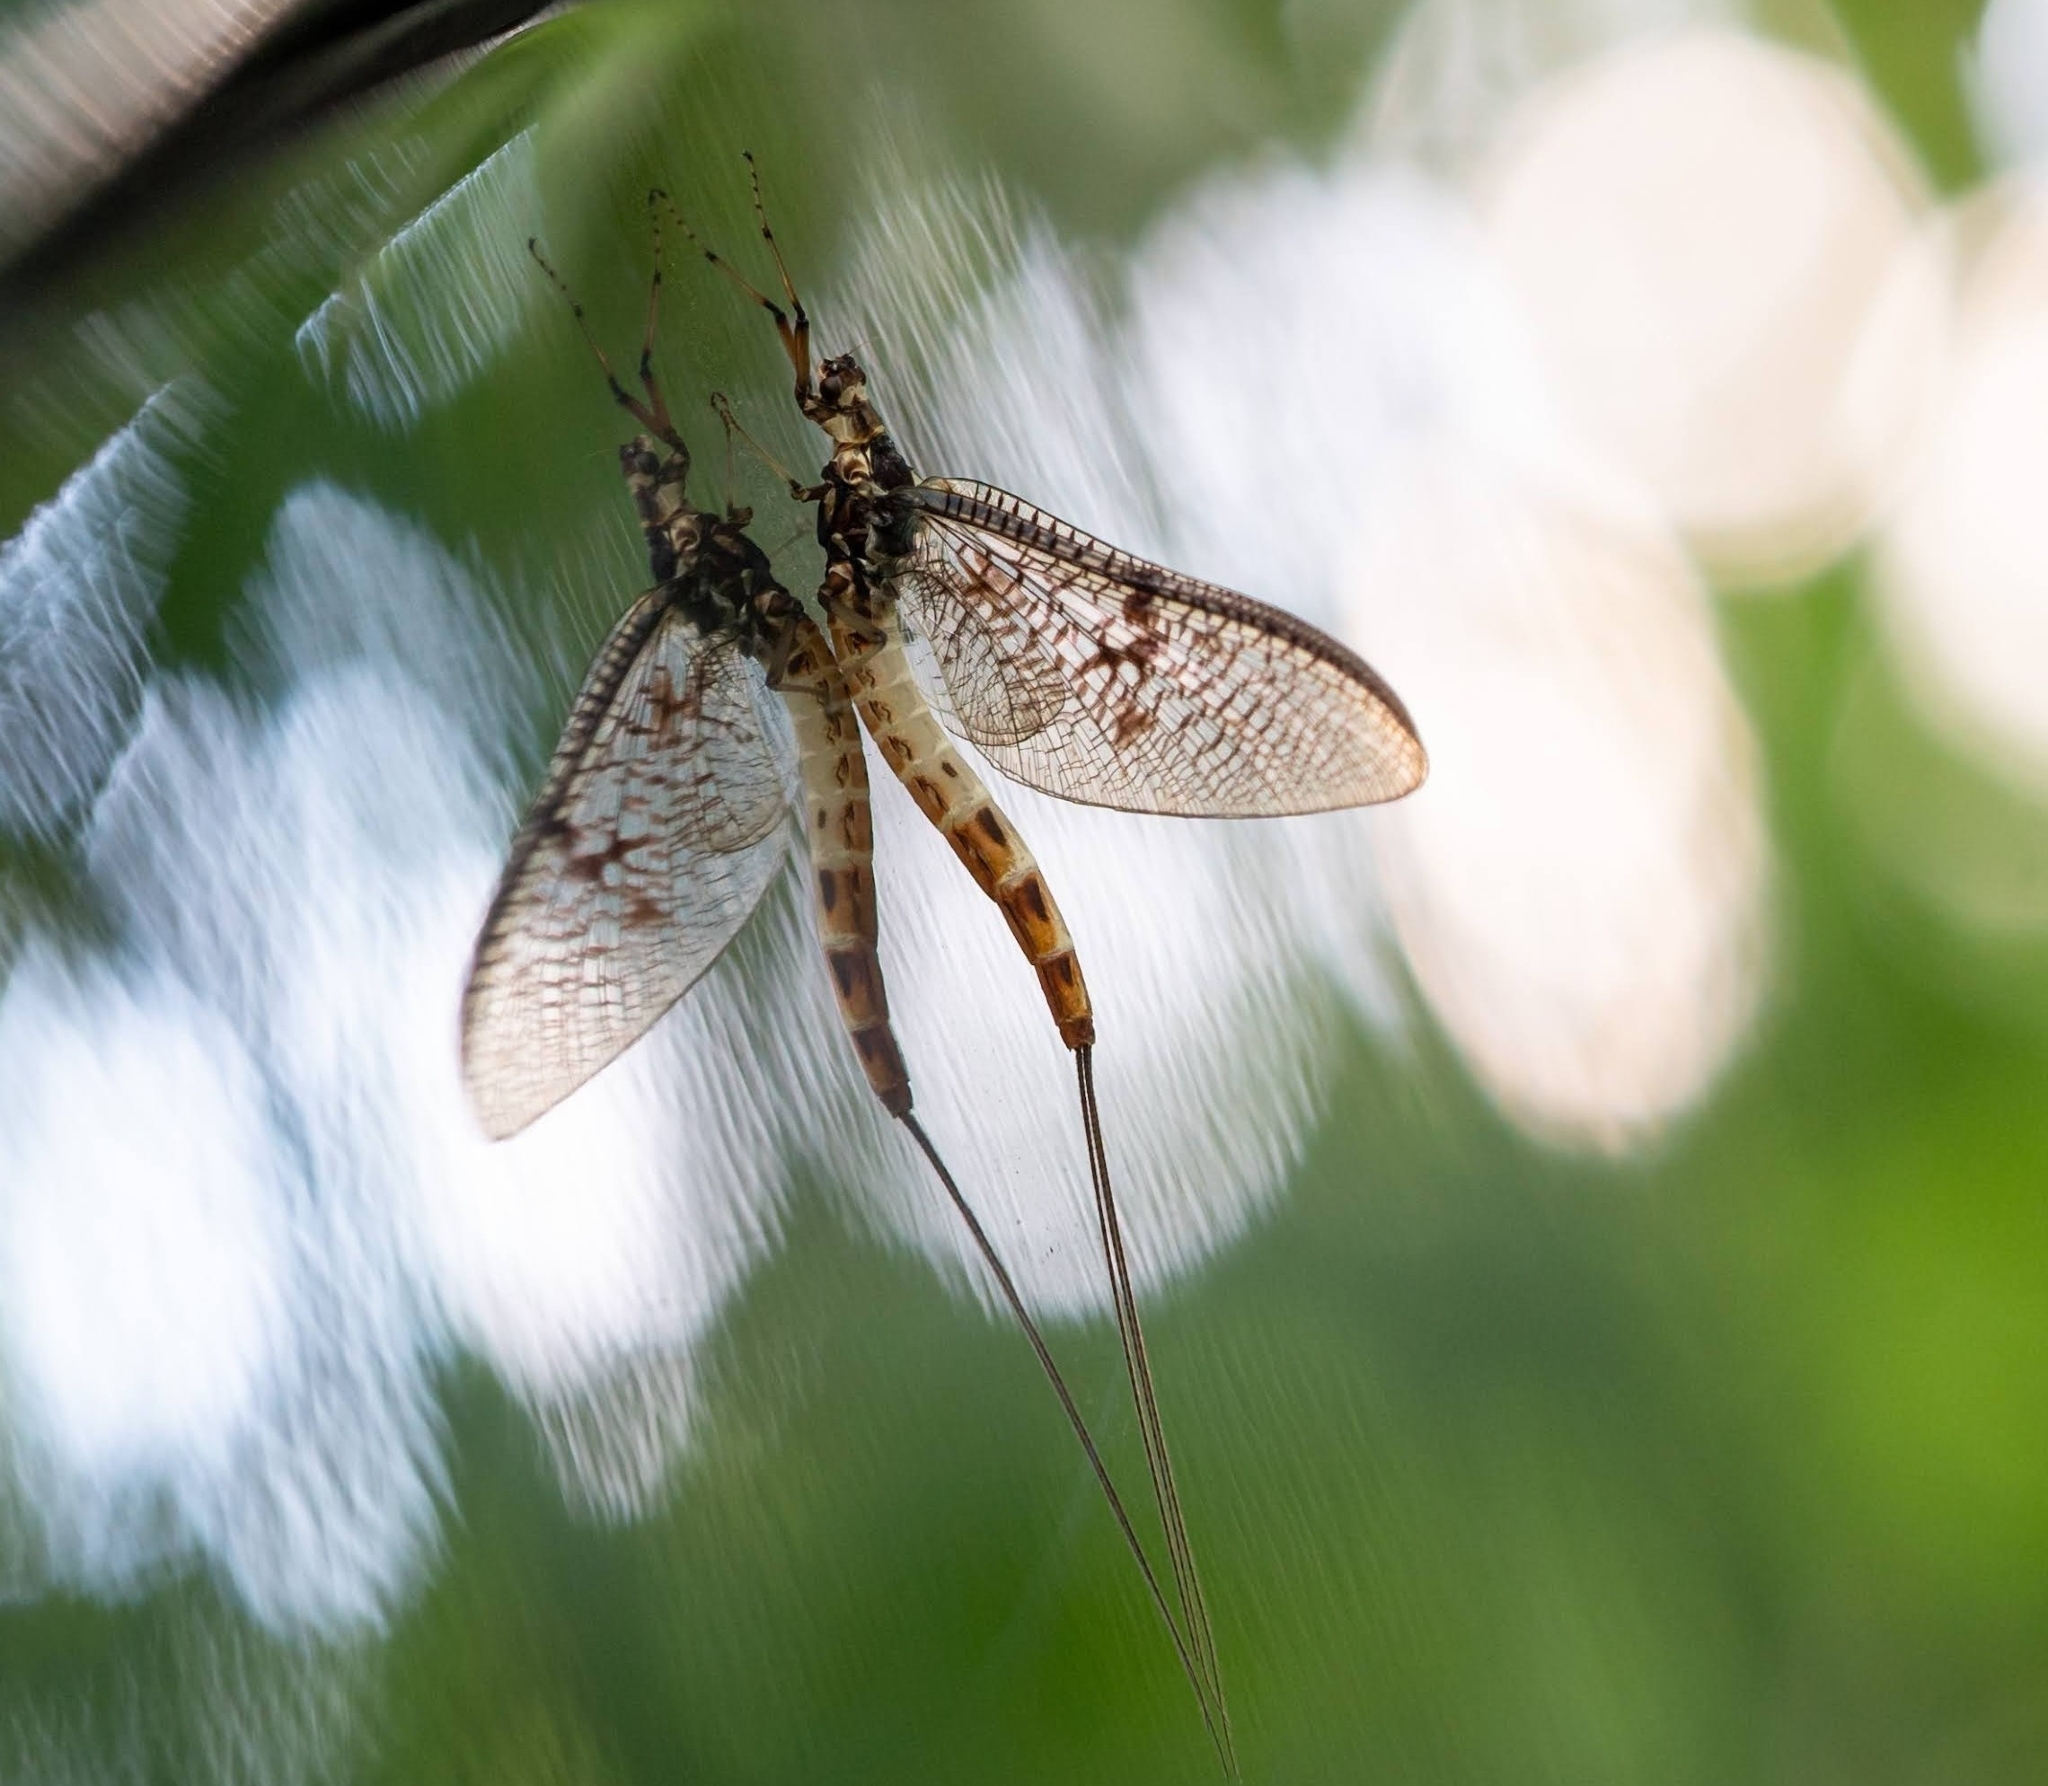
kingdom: Animalia
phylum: Arthropoda
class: Insecta
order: Ephemeroptera
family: Ephemeridae
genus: Ephemera
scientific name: Ephemera danica
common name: Green dun
